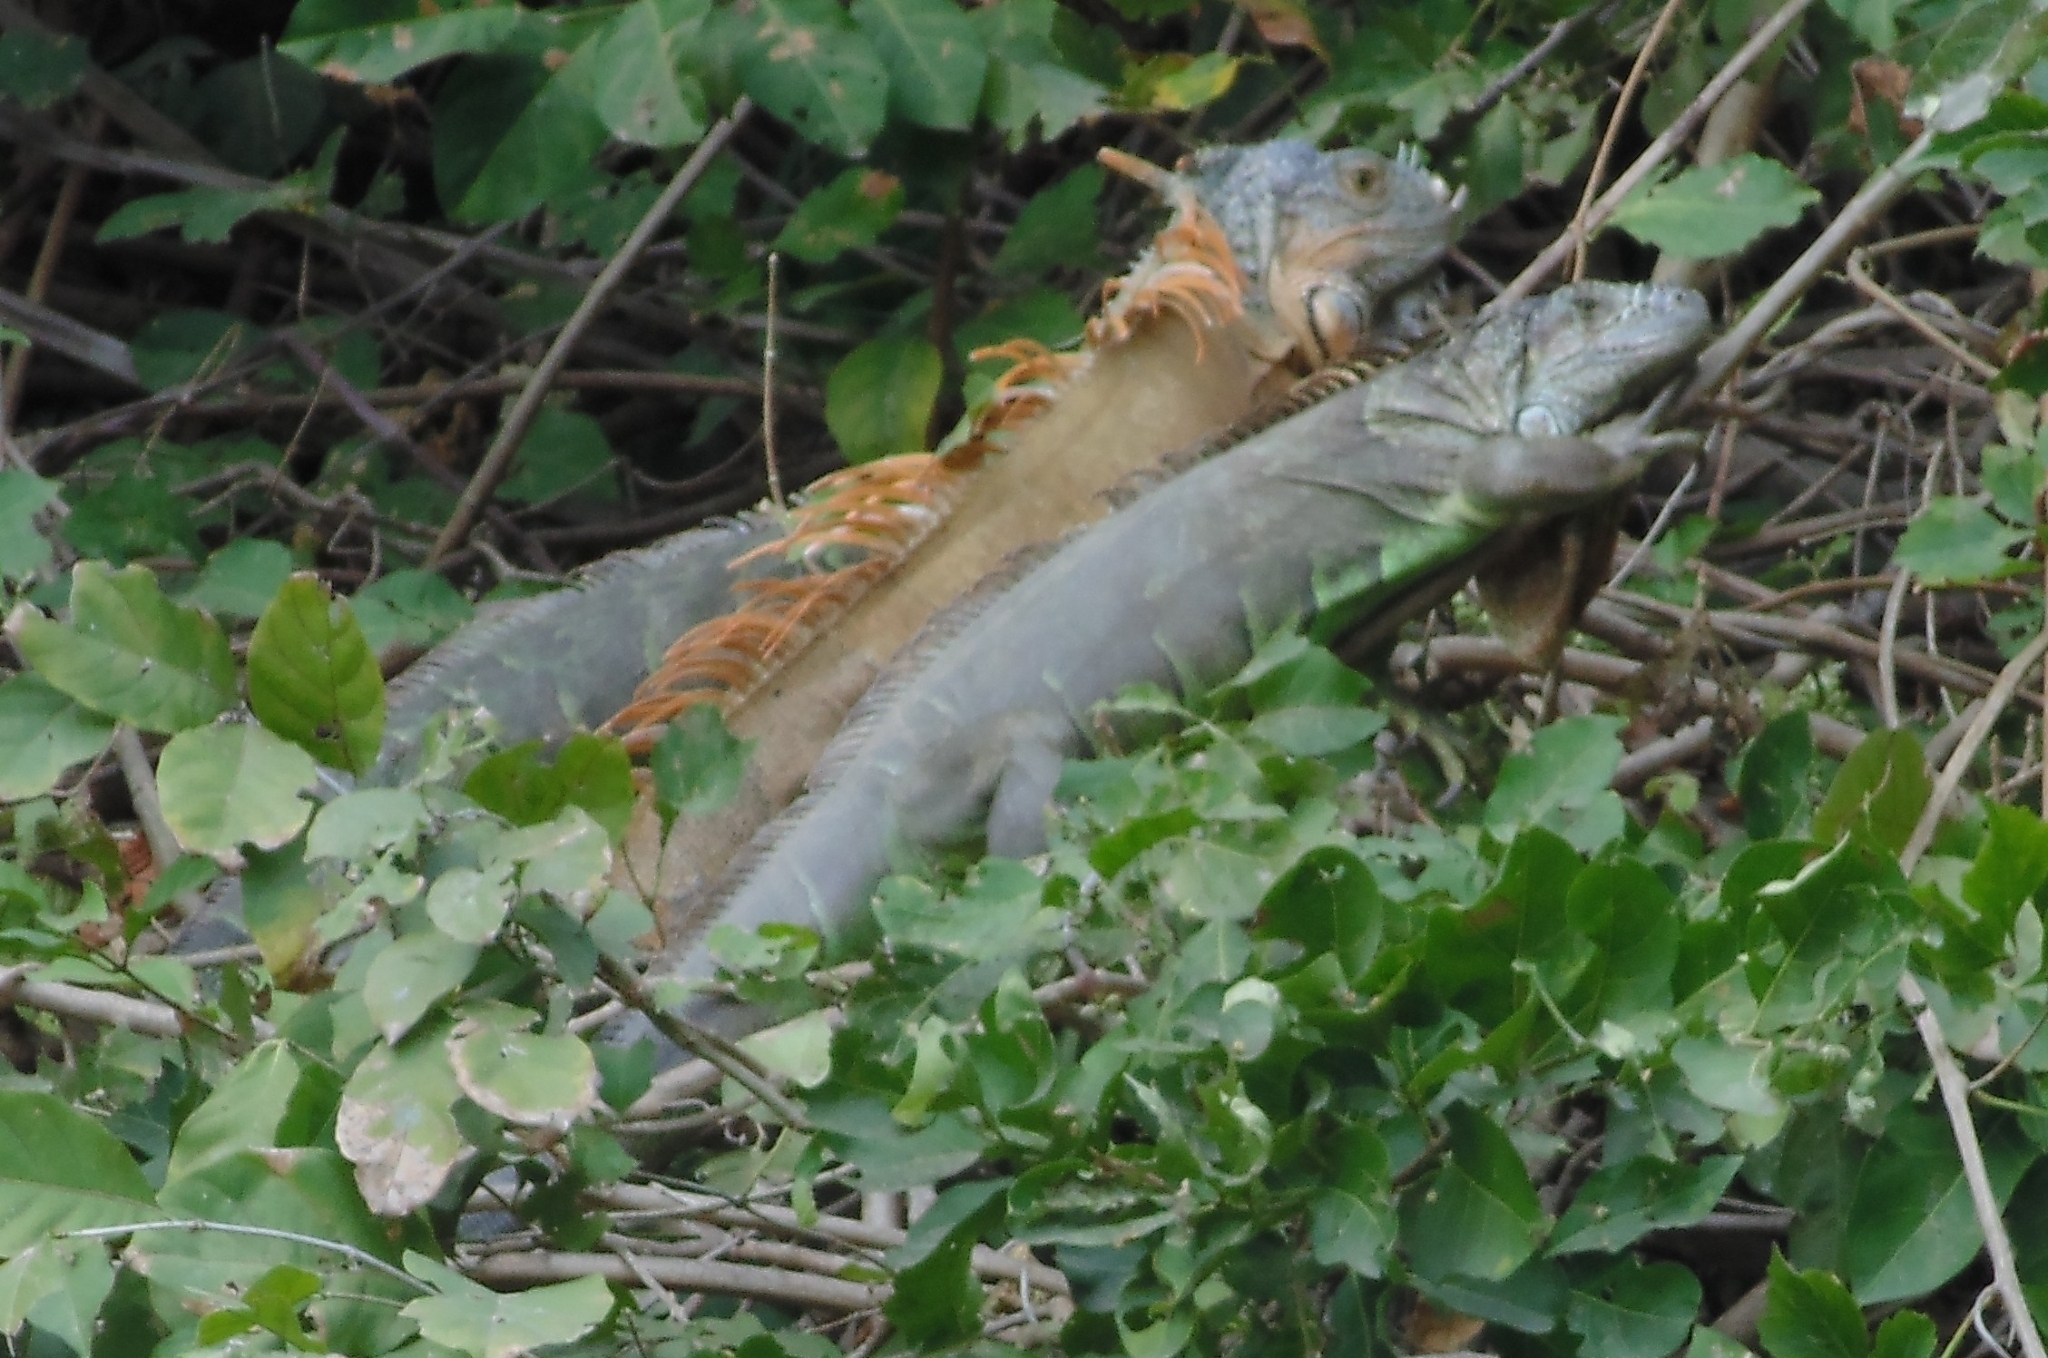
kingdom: Animalia
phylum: Chordata
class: Squamata
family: Iguanidae
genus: Iguana
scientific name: Iguana iguana
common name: Green iguana
